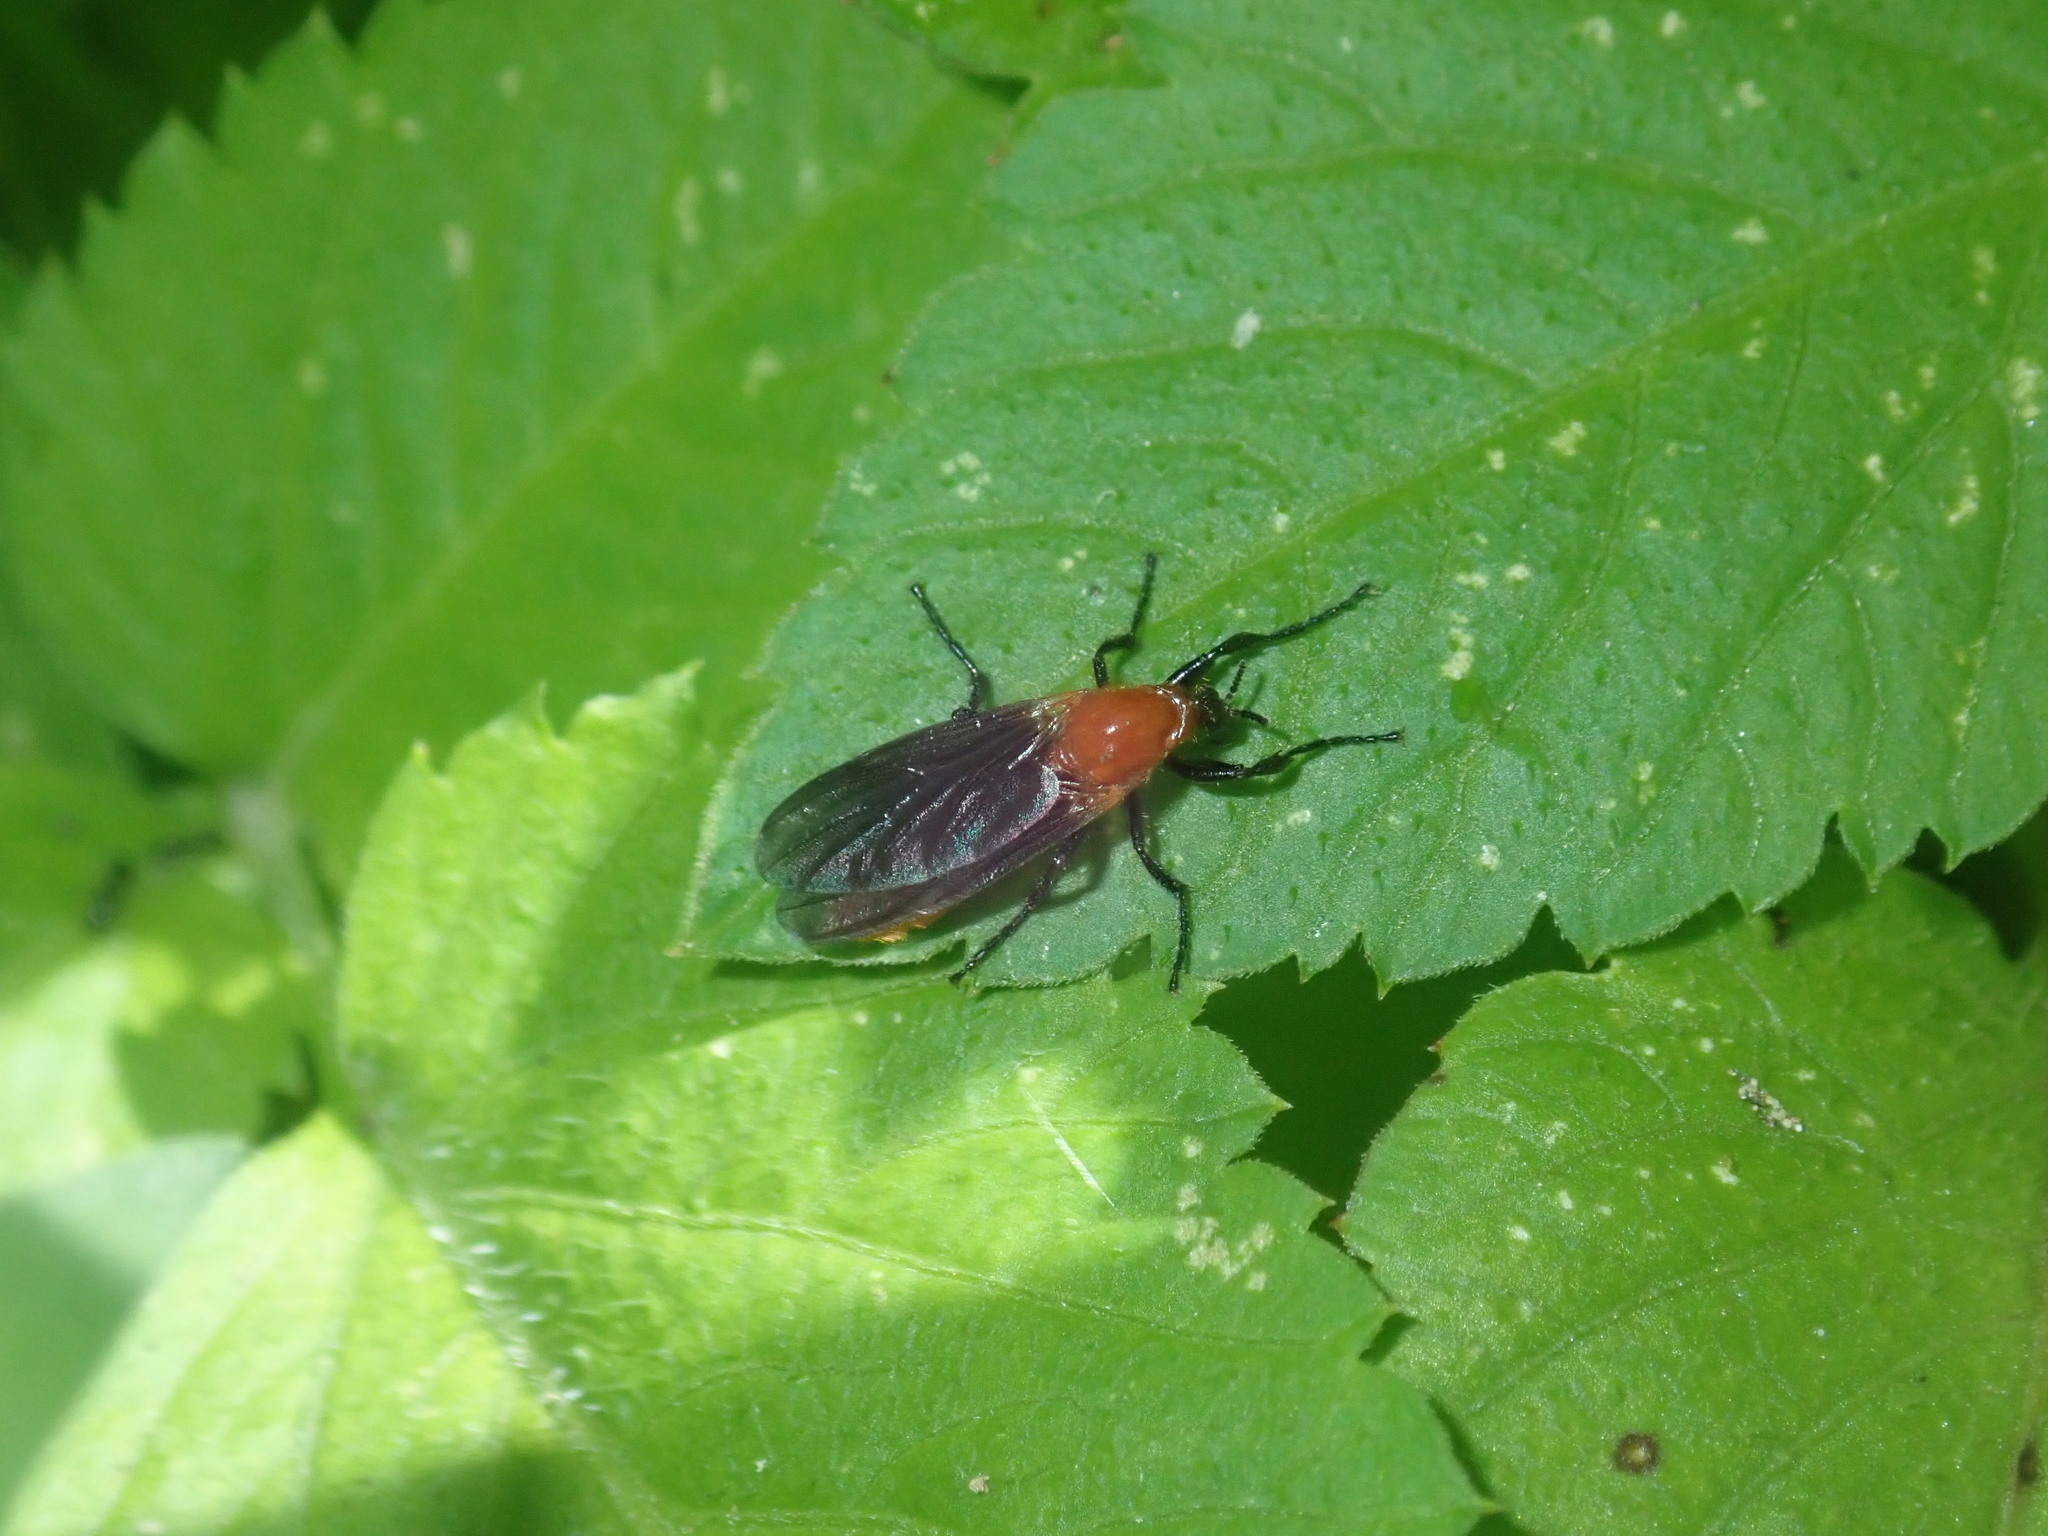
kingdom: Animalia
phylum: Arthropoda
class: Insecta
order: Diptera
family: Bibionidae
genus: Bibio
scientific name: Bibio imitator
